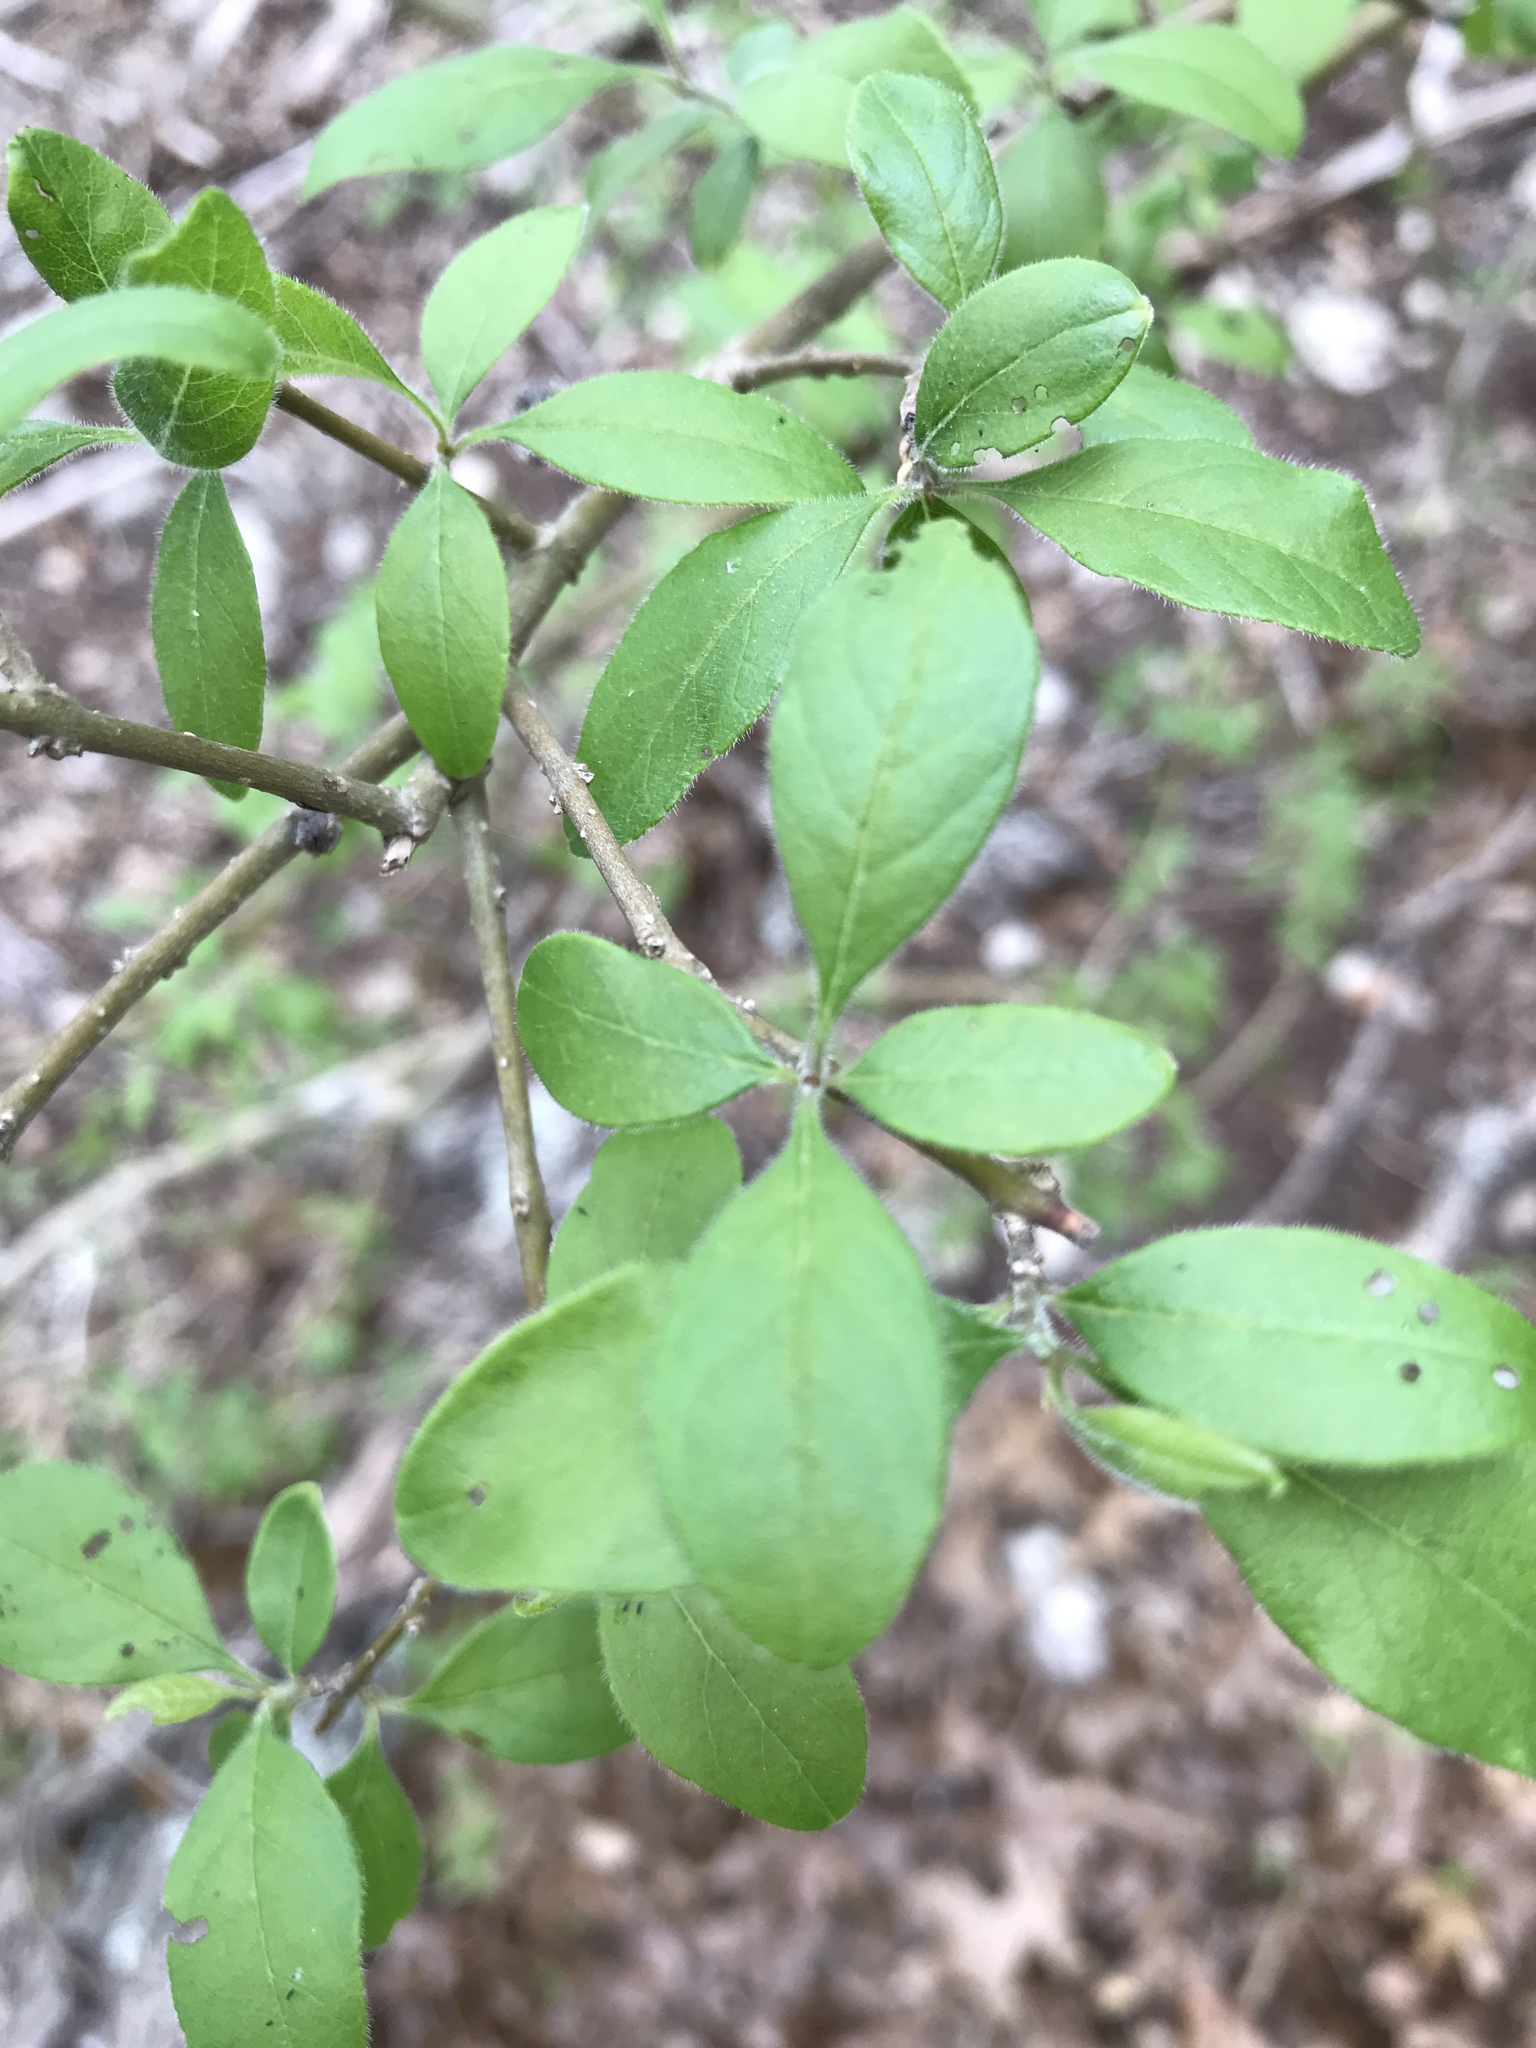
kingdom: Plantae
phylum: Tracheophyta
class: Magnoliopsida
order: Lamiales
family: Oleaceae
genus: Forestiera
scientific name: Forestiera pubescens
